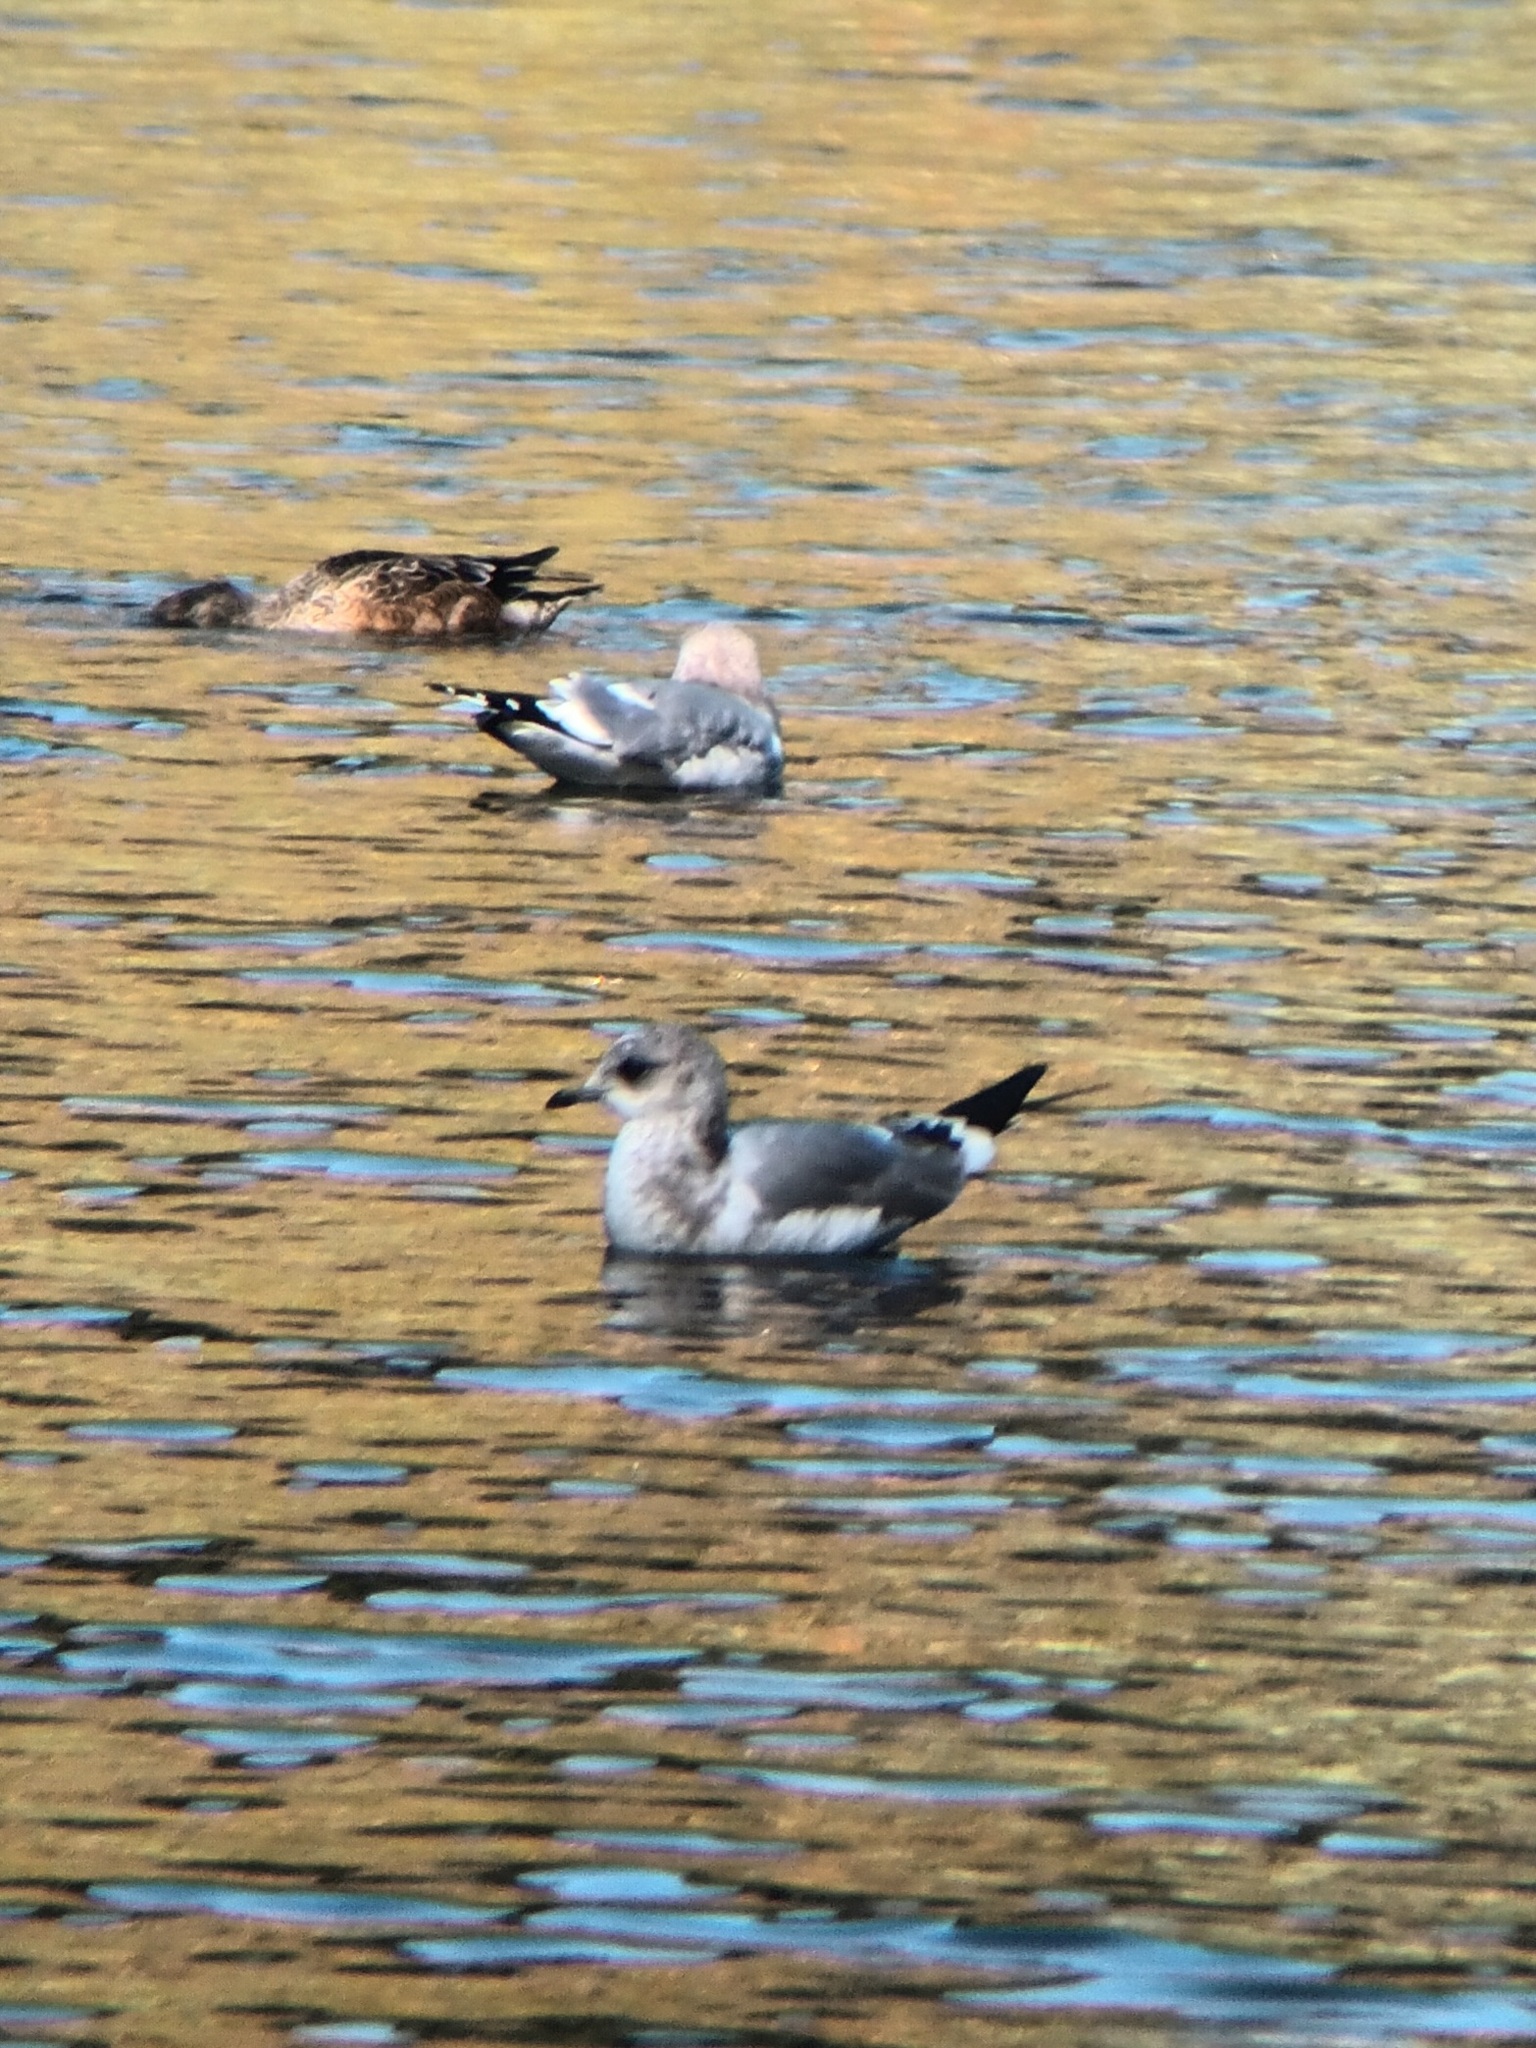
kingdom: Animalia
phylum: Chordata
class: Aves
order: Charadriiformes
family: Laridae
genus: Larus
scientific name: Larus brachyrhynchus
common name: Short-billed gull
